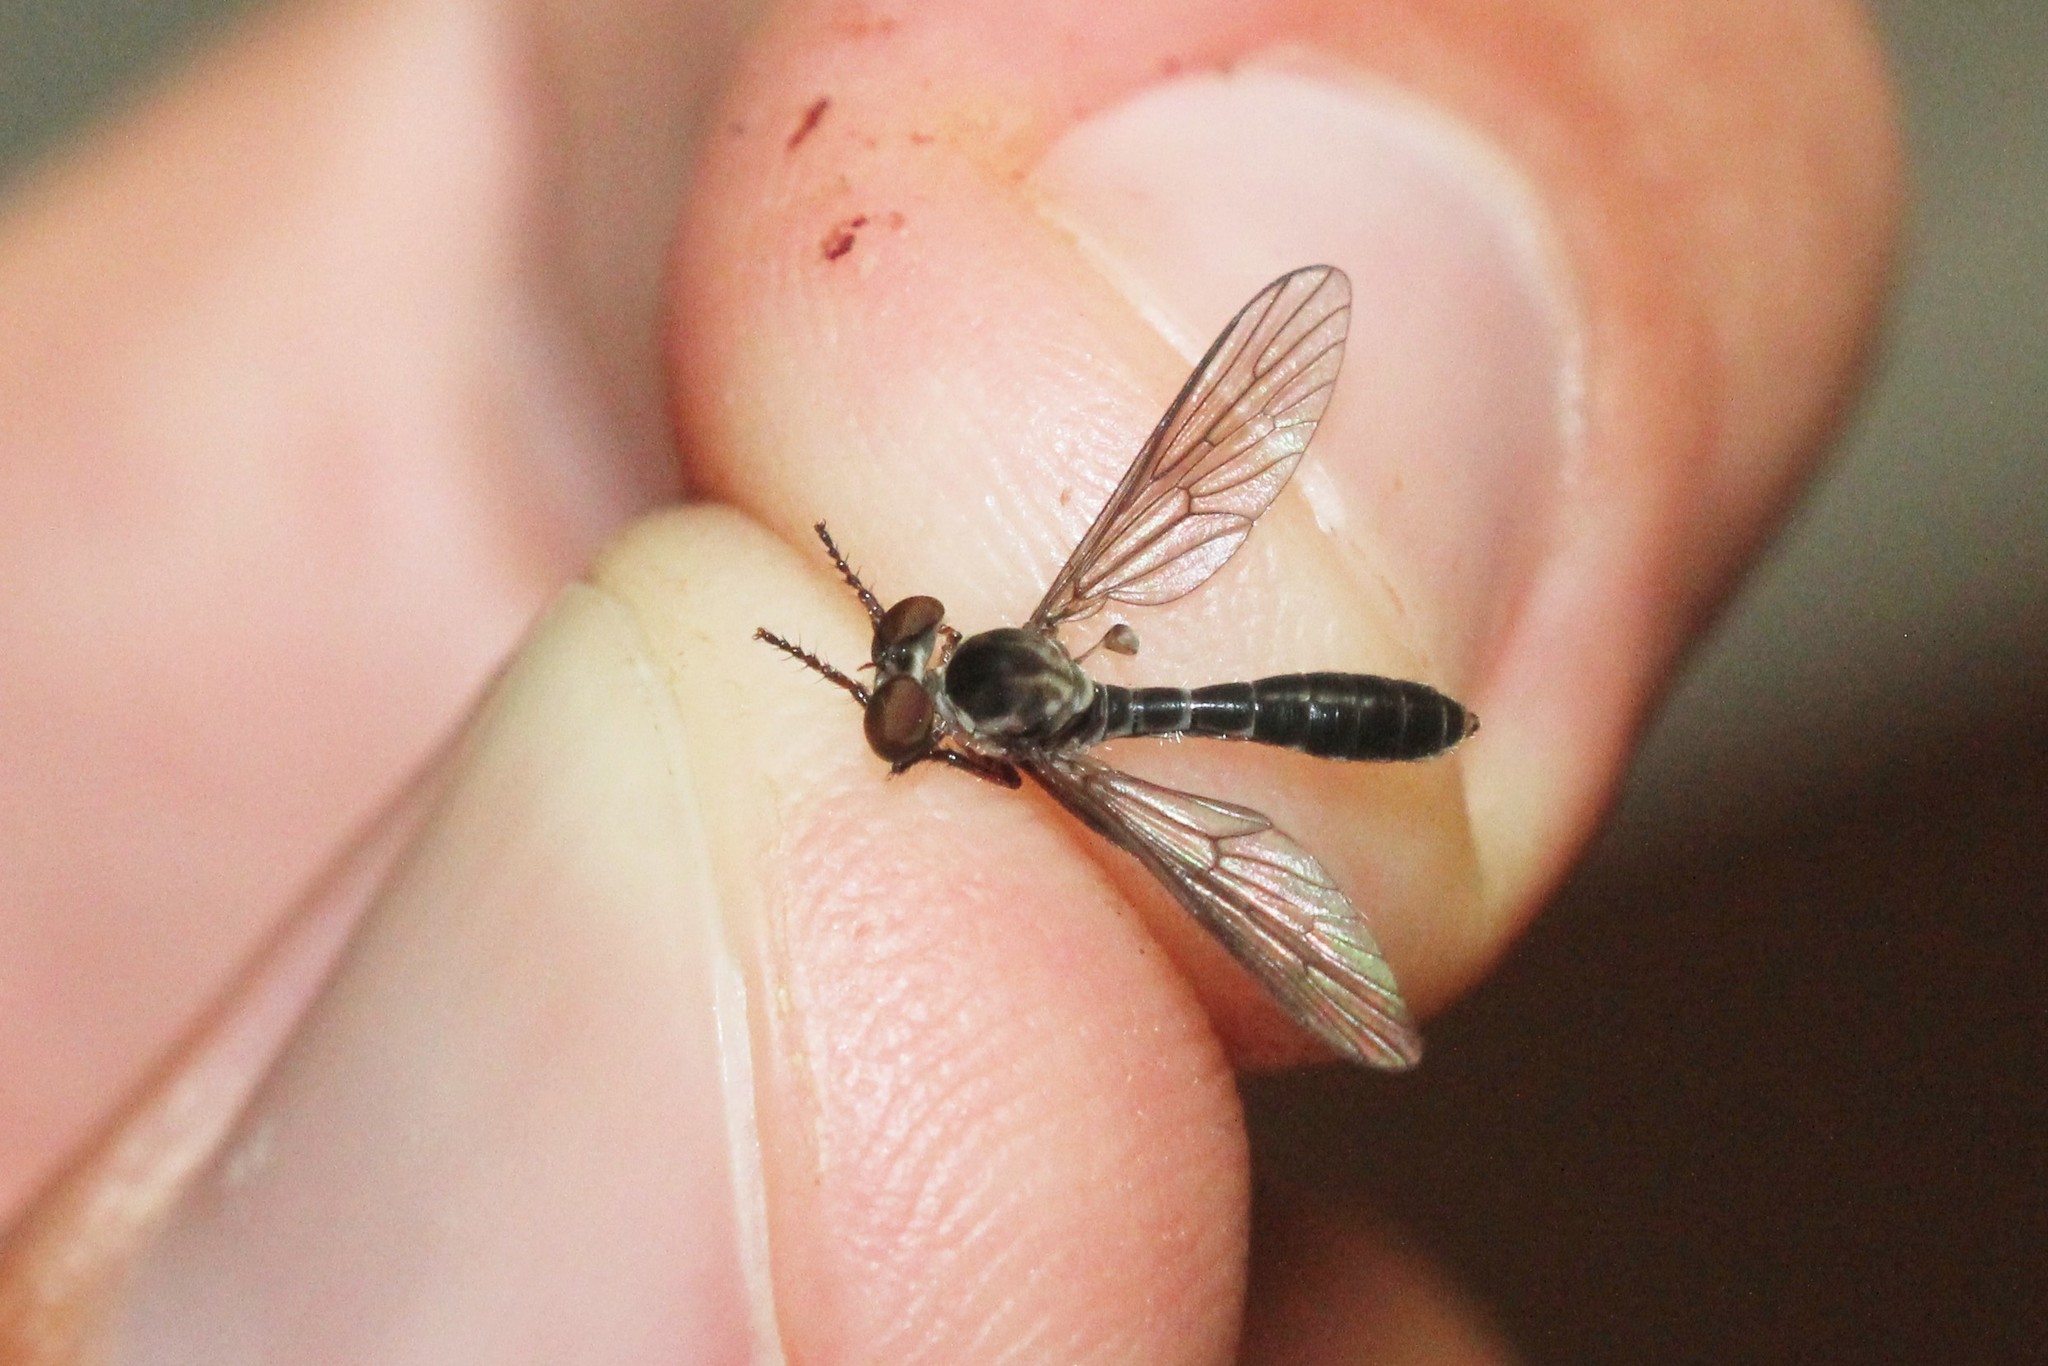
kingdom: Animalia
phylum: Arthropoda
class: Insecta
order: Diptera
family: Asilidae
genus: Holcocephala
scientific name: Holcocephala calva
